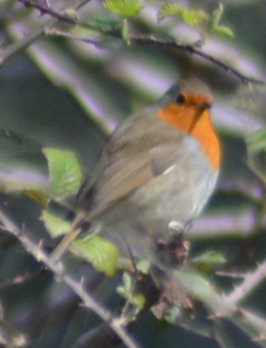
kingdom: Animalia
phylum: Chordata
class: Aves
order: Passeriformes
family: Muscicapidae
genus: Erithacus
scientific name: Erithacus rubecula
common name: European robin
